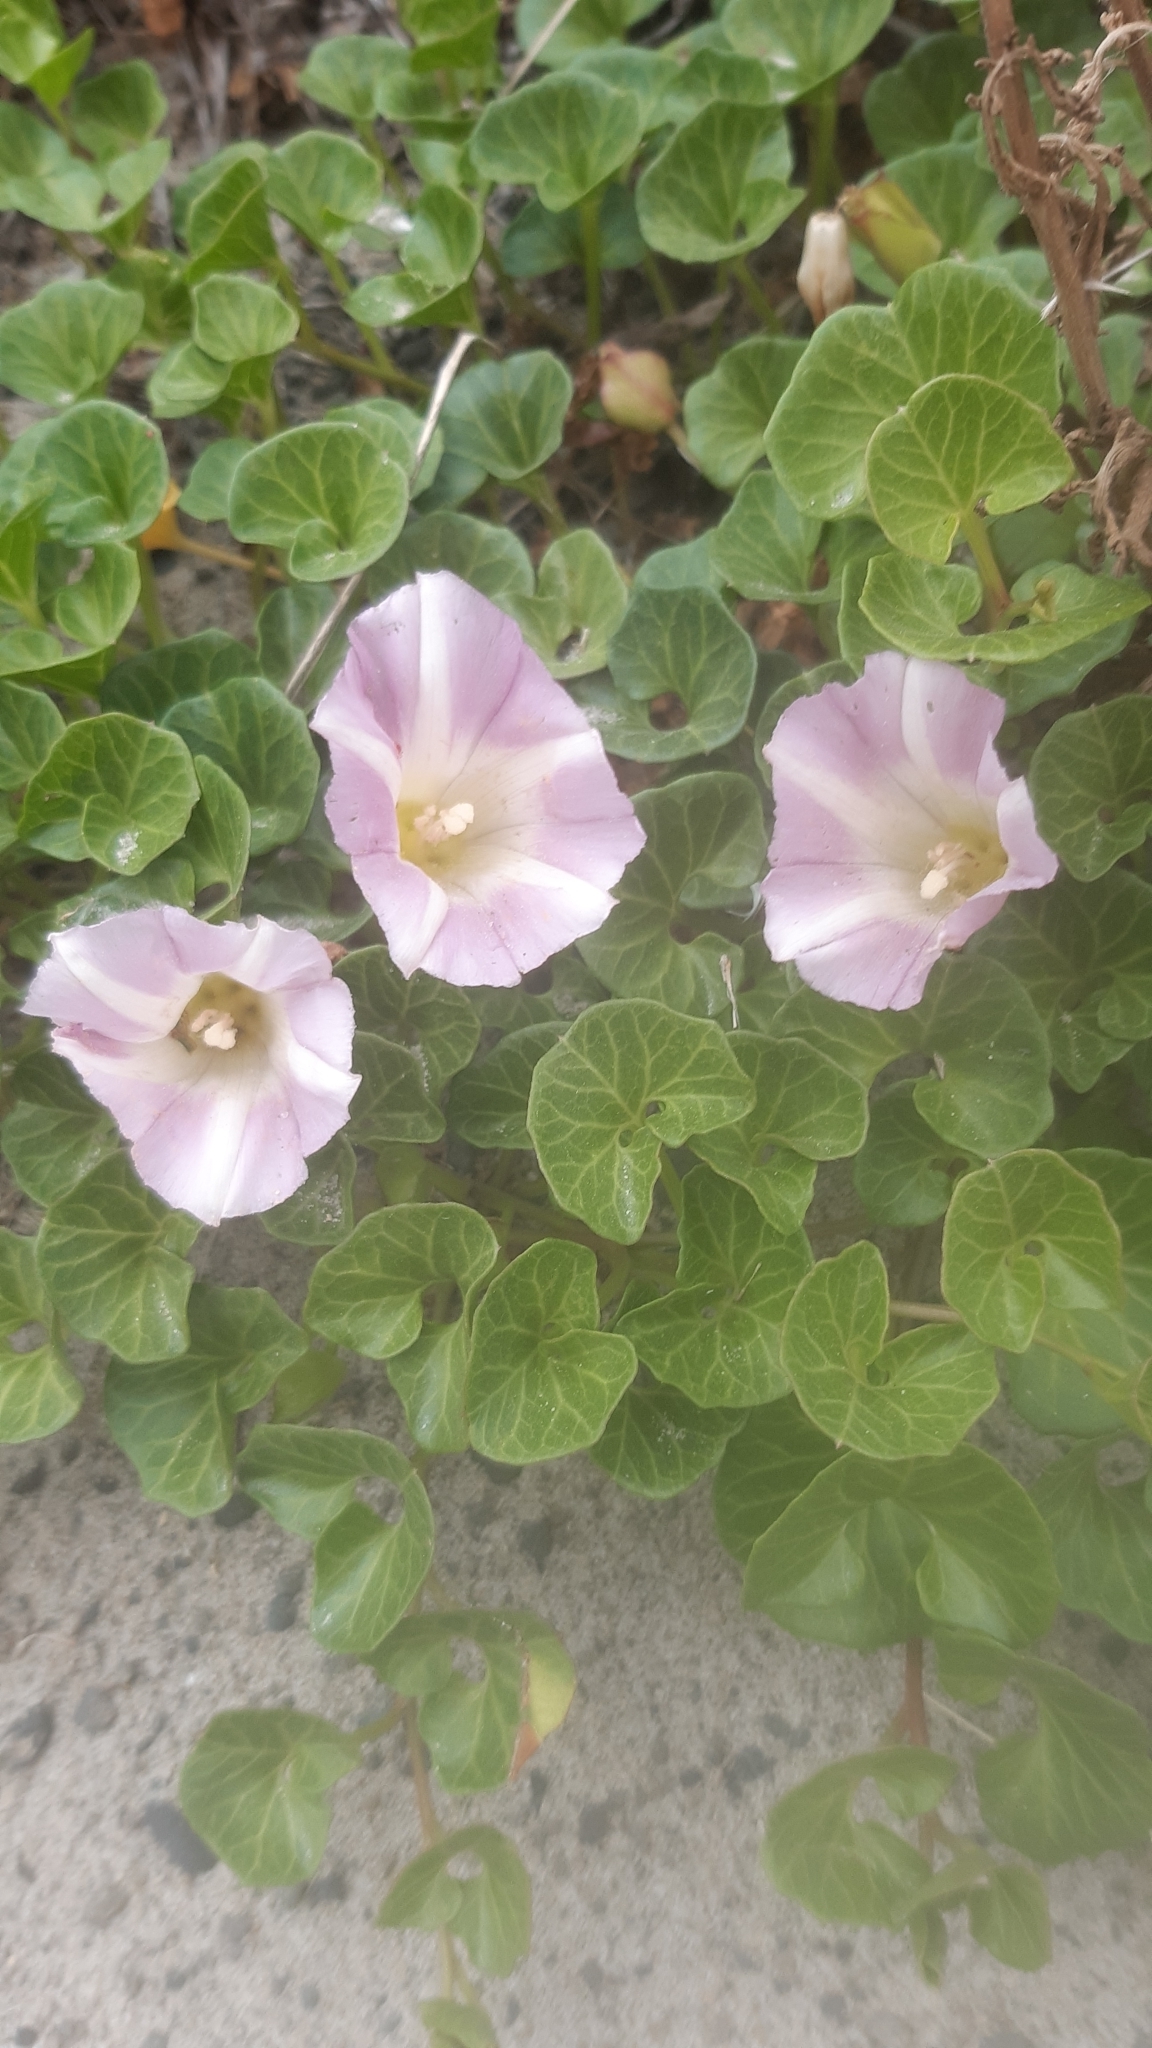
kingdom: Plantae
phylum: Tracheophyta
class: Magnoliopsida
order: Solanales
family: Convolvulaceae
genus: Calystegia
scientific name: Calystegia soldanella
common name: Sea bindweed
